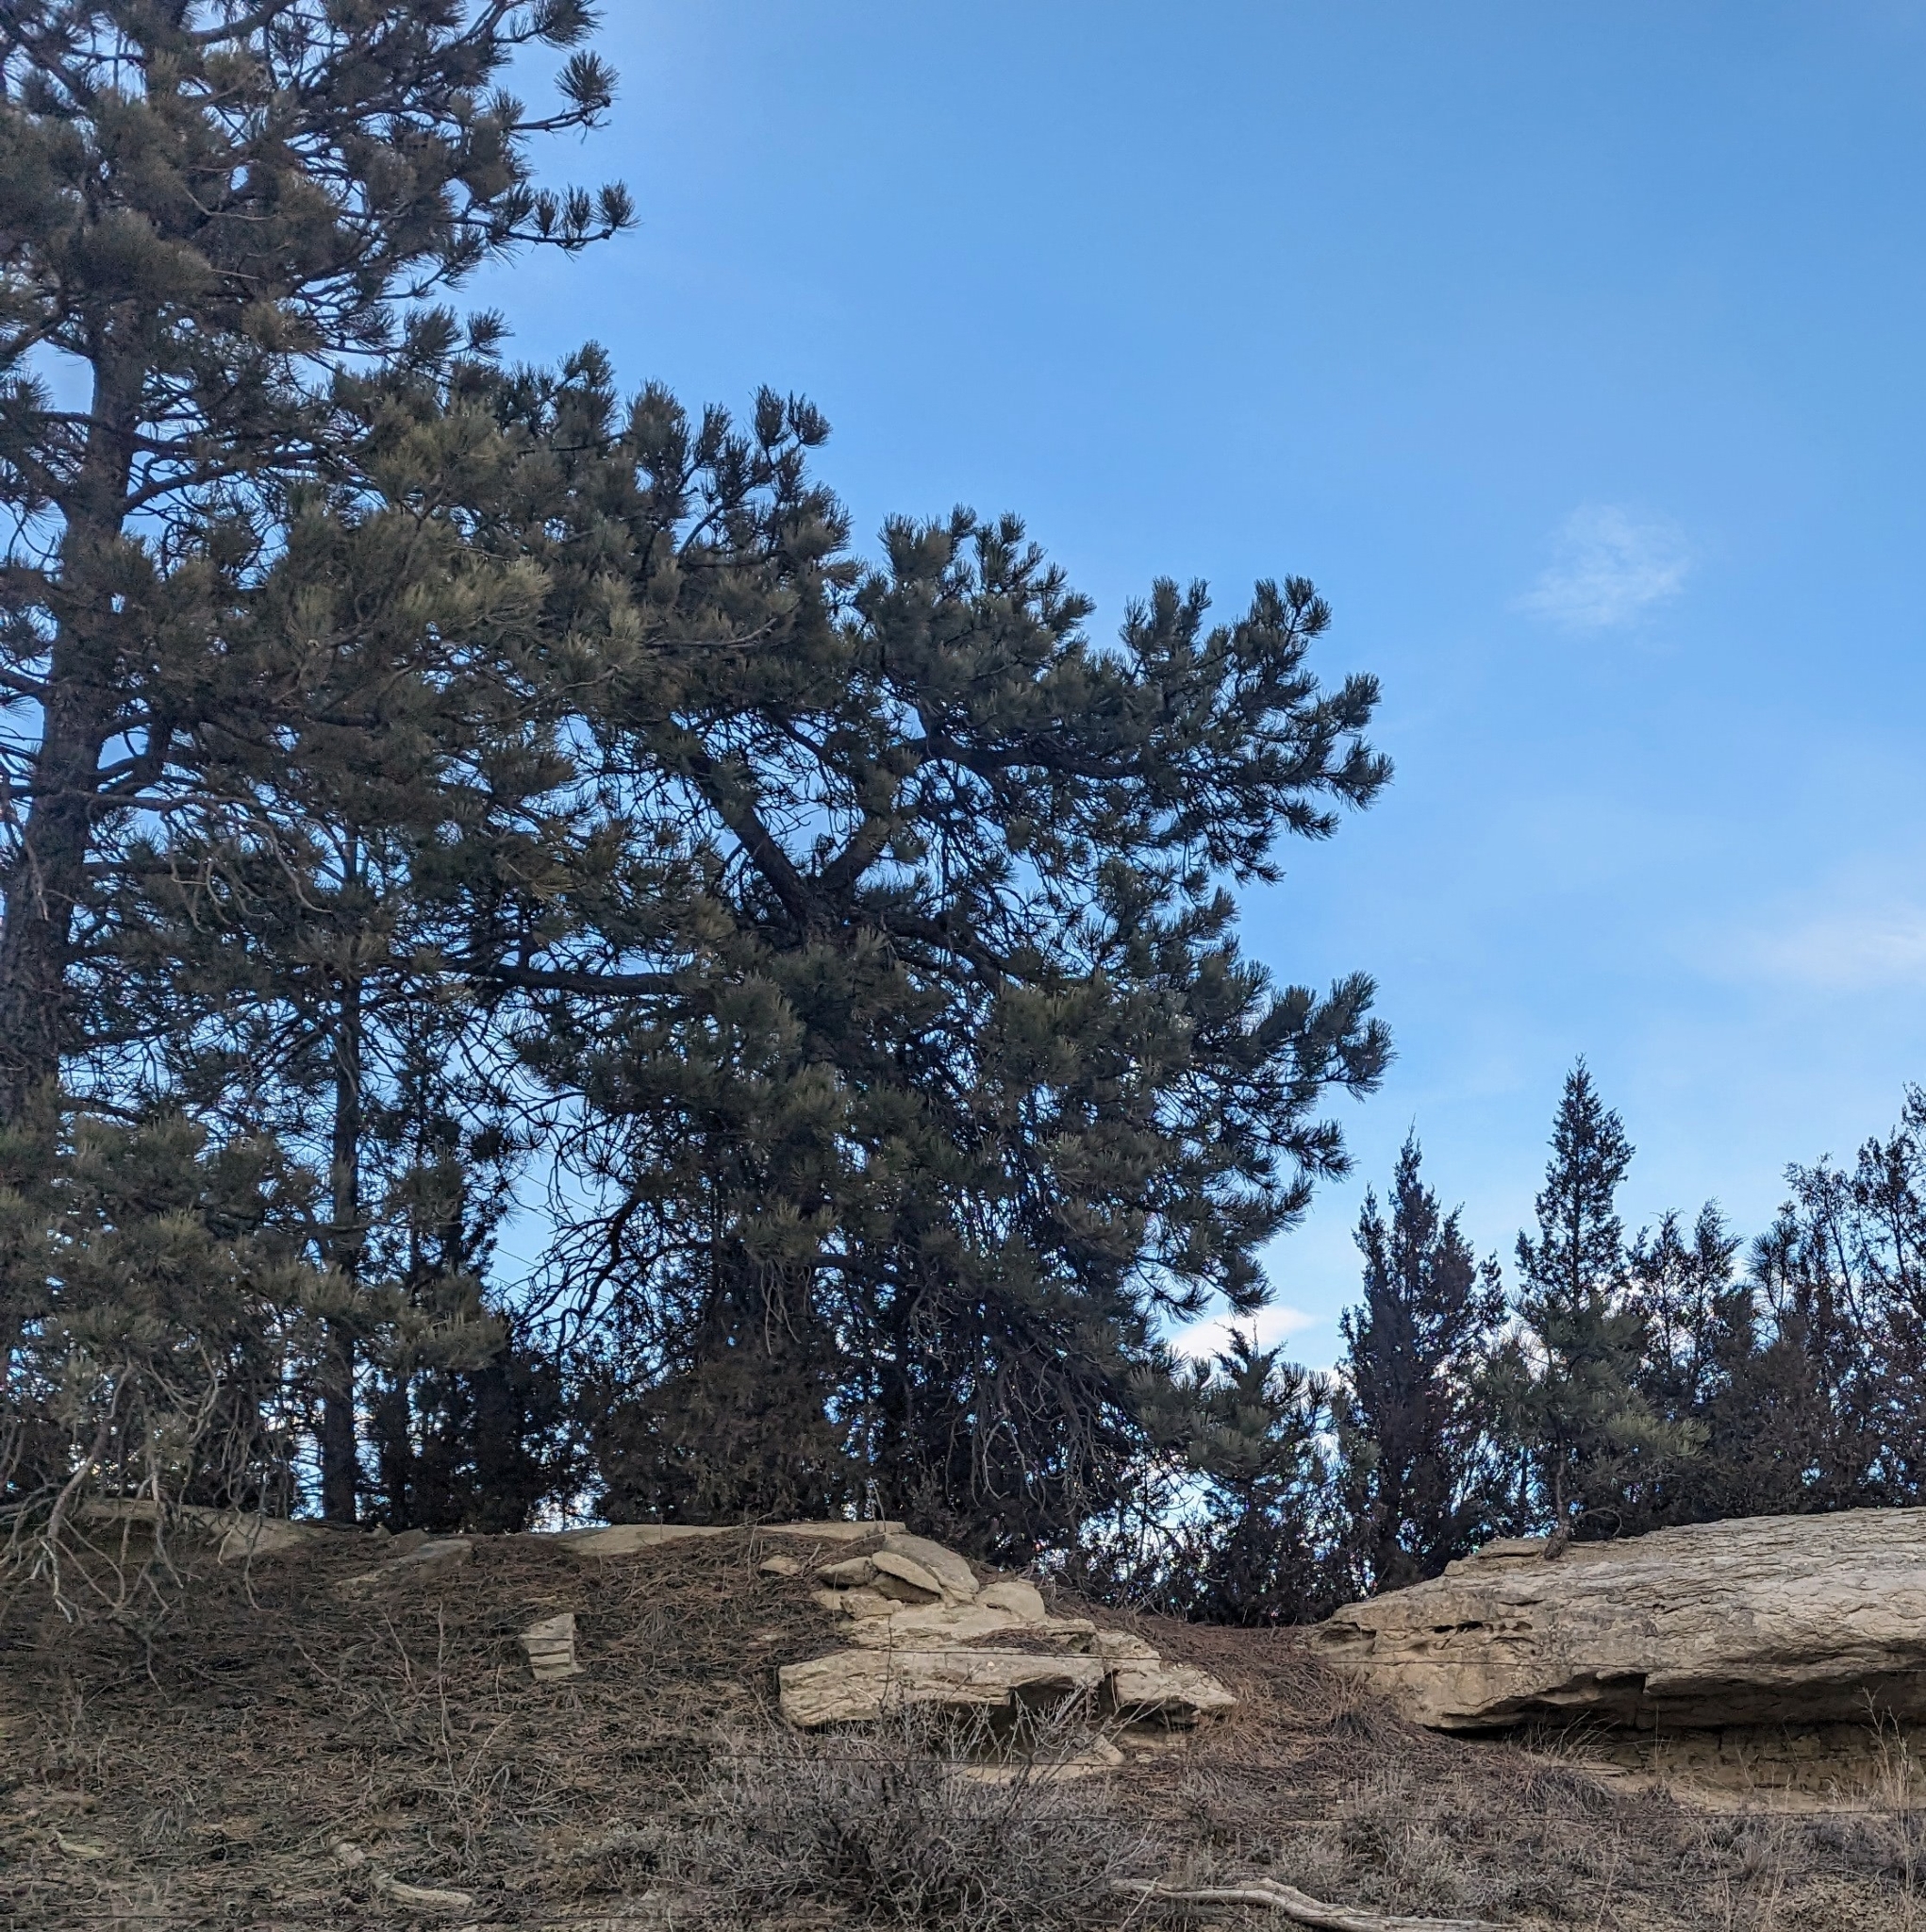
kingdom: Plantae
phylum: Tracheophyta
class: Pinopsida
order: Pinales
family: Pinaceae
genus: Pinus
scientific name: Pinus ponderosa
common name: Western yellow-pine
